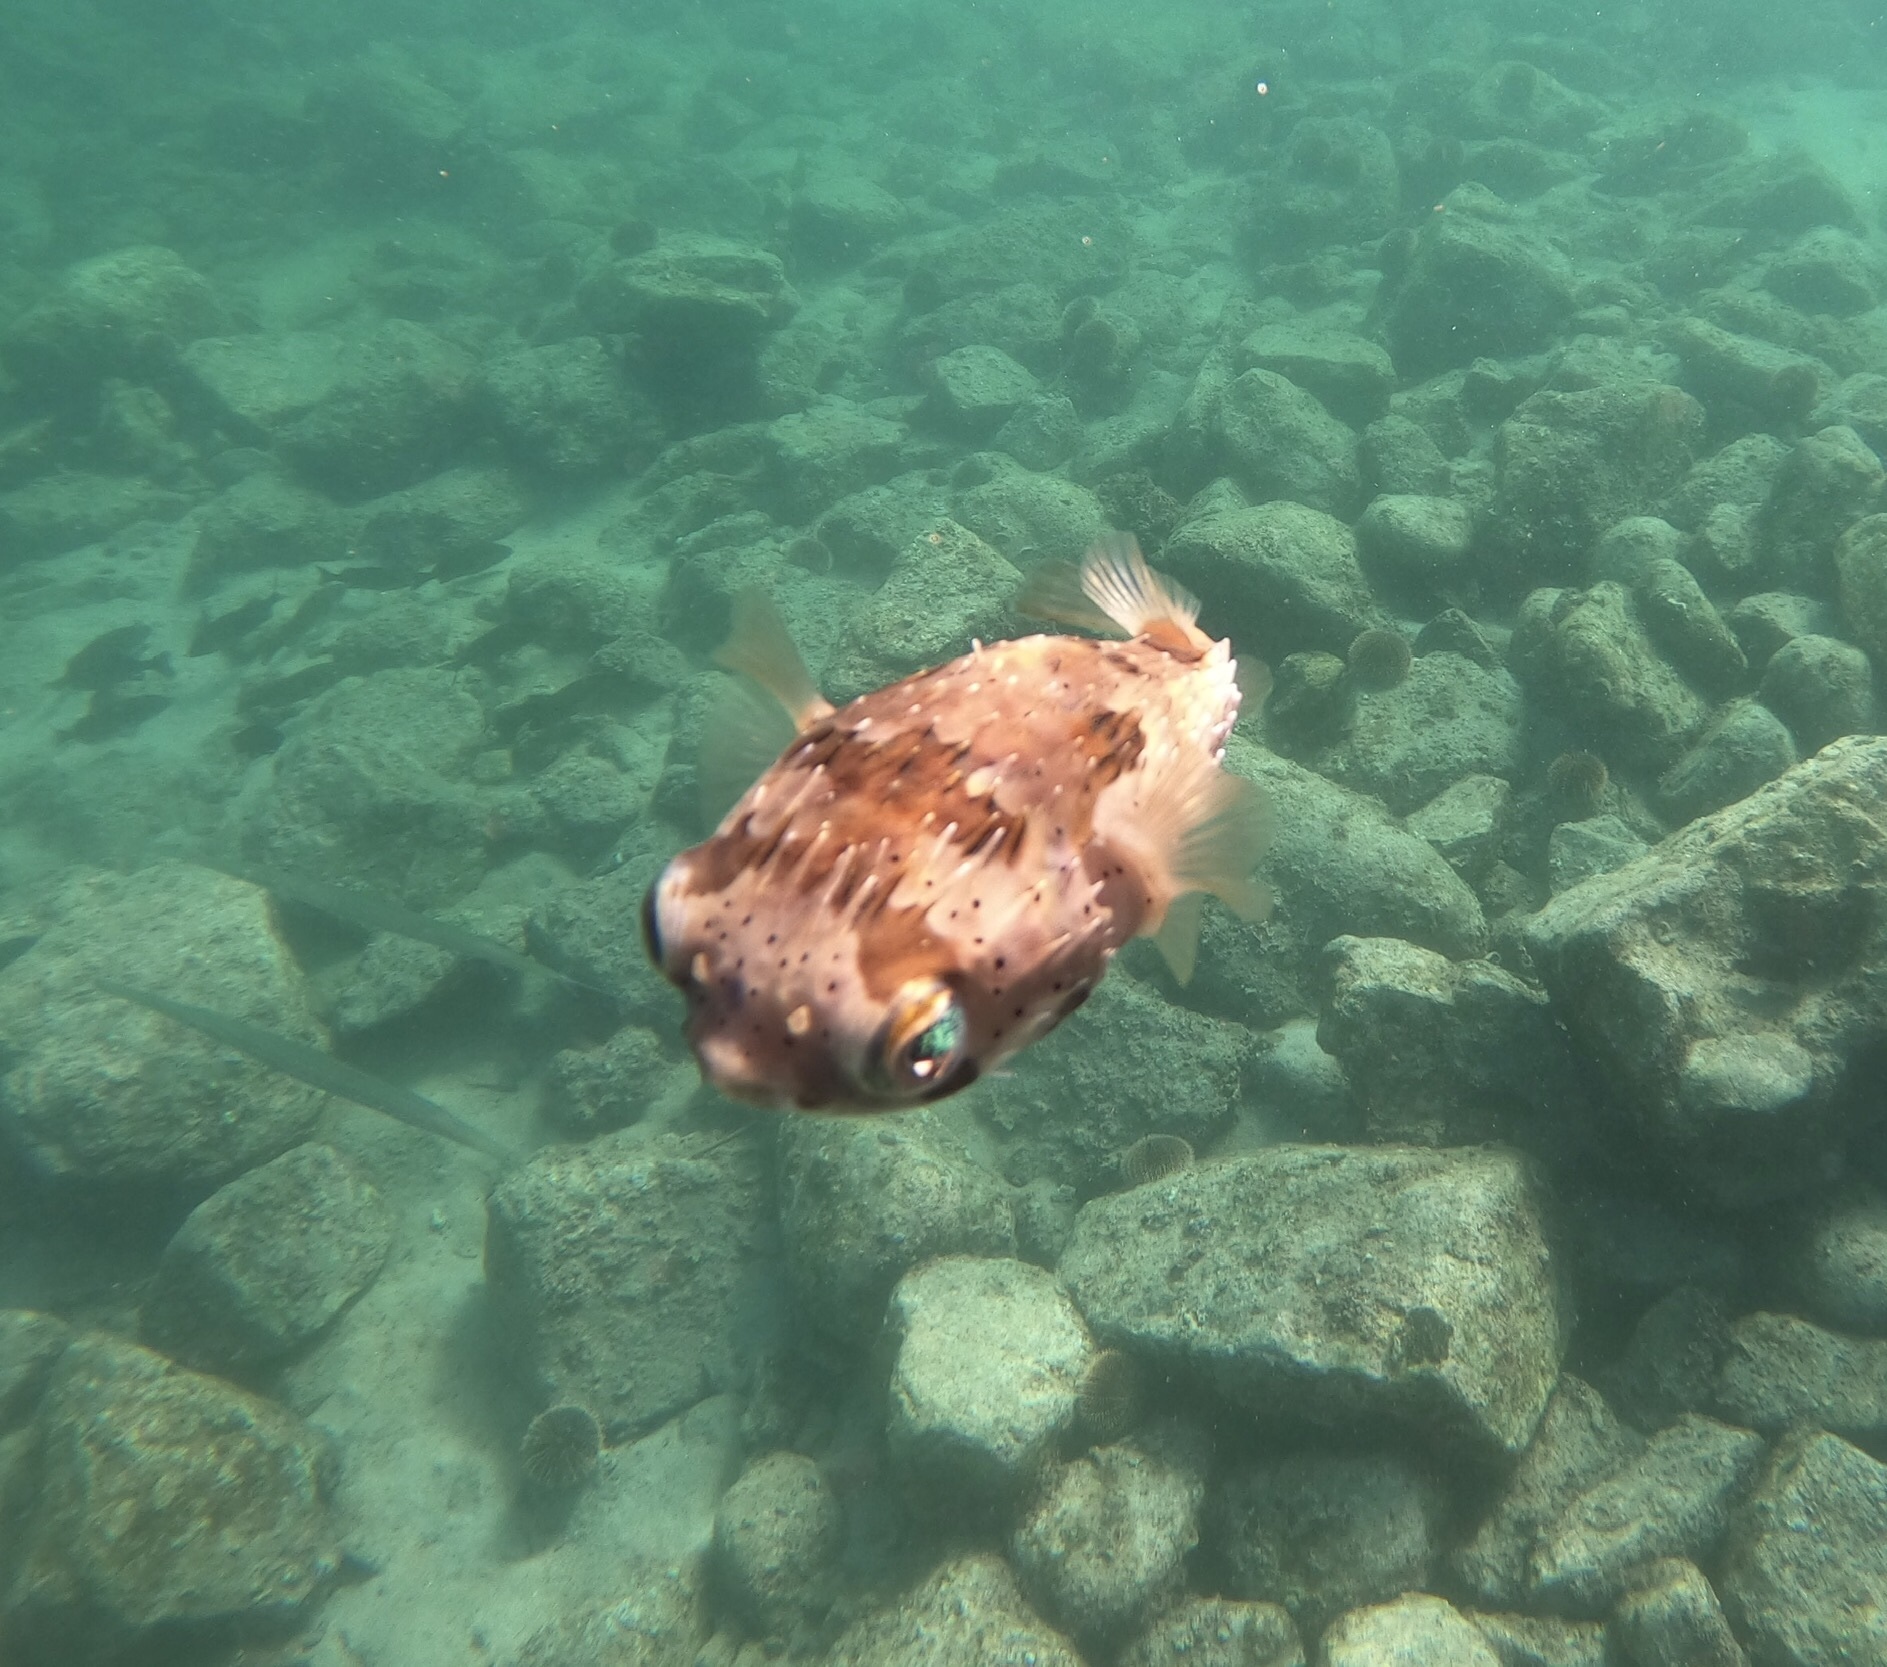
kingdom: Animalia
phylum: Chordata
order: Tetraodontiformes
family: Diodontidae
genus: Diodon
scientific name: Diodon holocanthus
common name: Balloonfish
